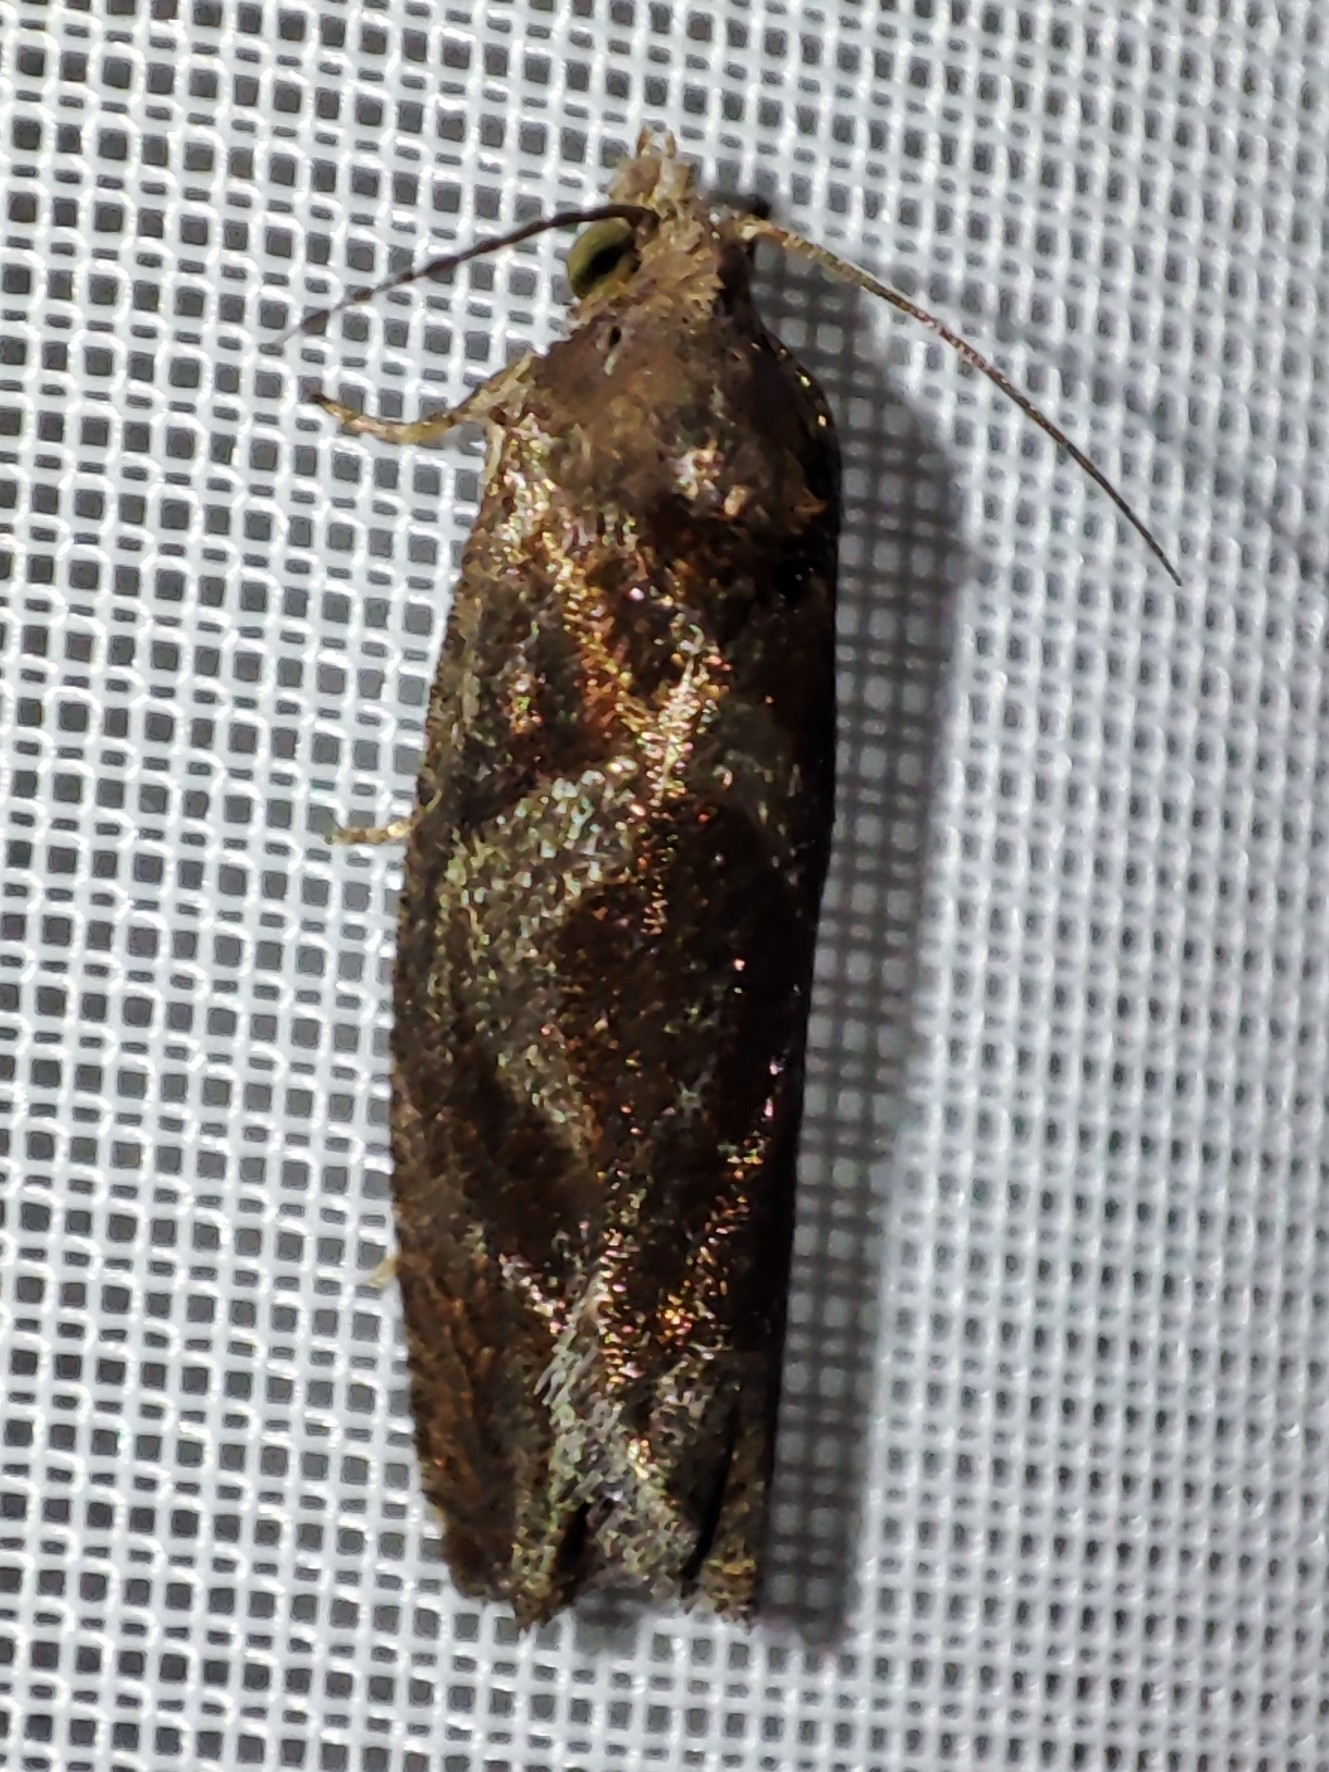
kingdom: Animalia
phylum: Arthropoda
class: Insecta
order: Lepidoptera
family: Tortricidae
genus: Epiblema
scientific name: Epiblema foenella
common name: White-foot bell
